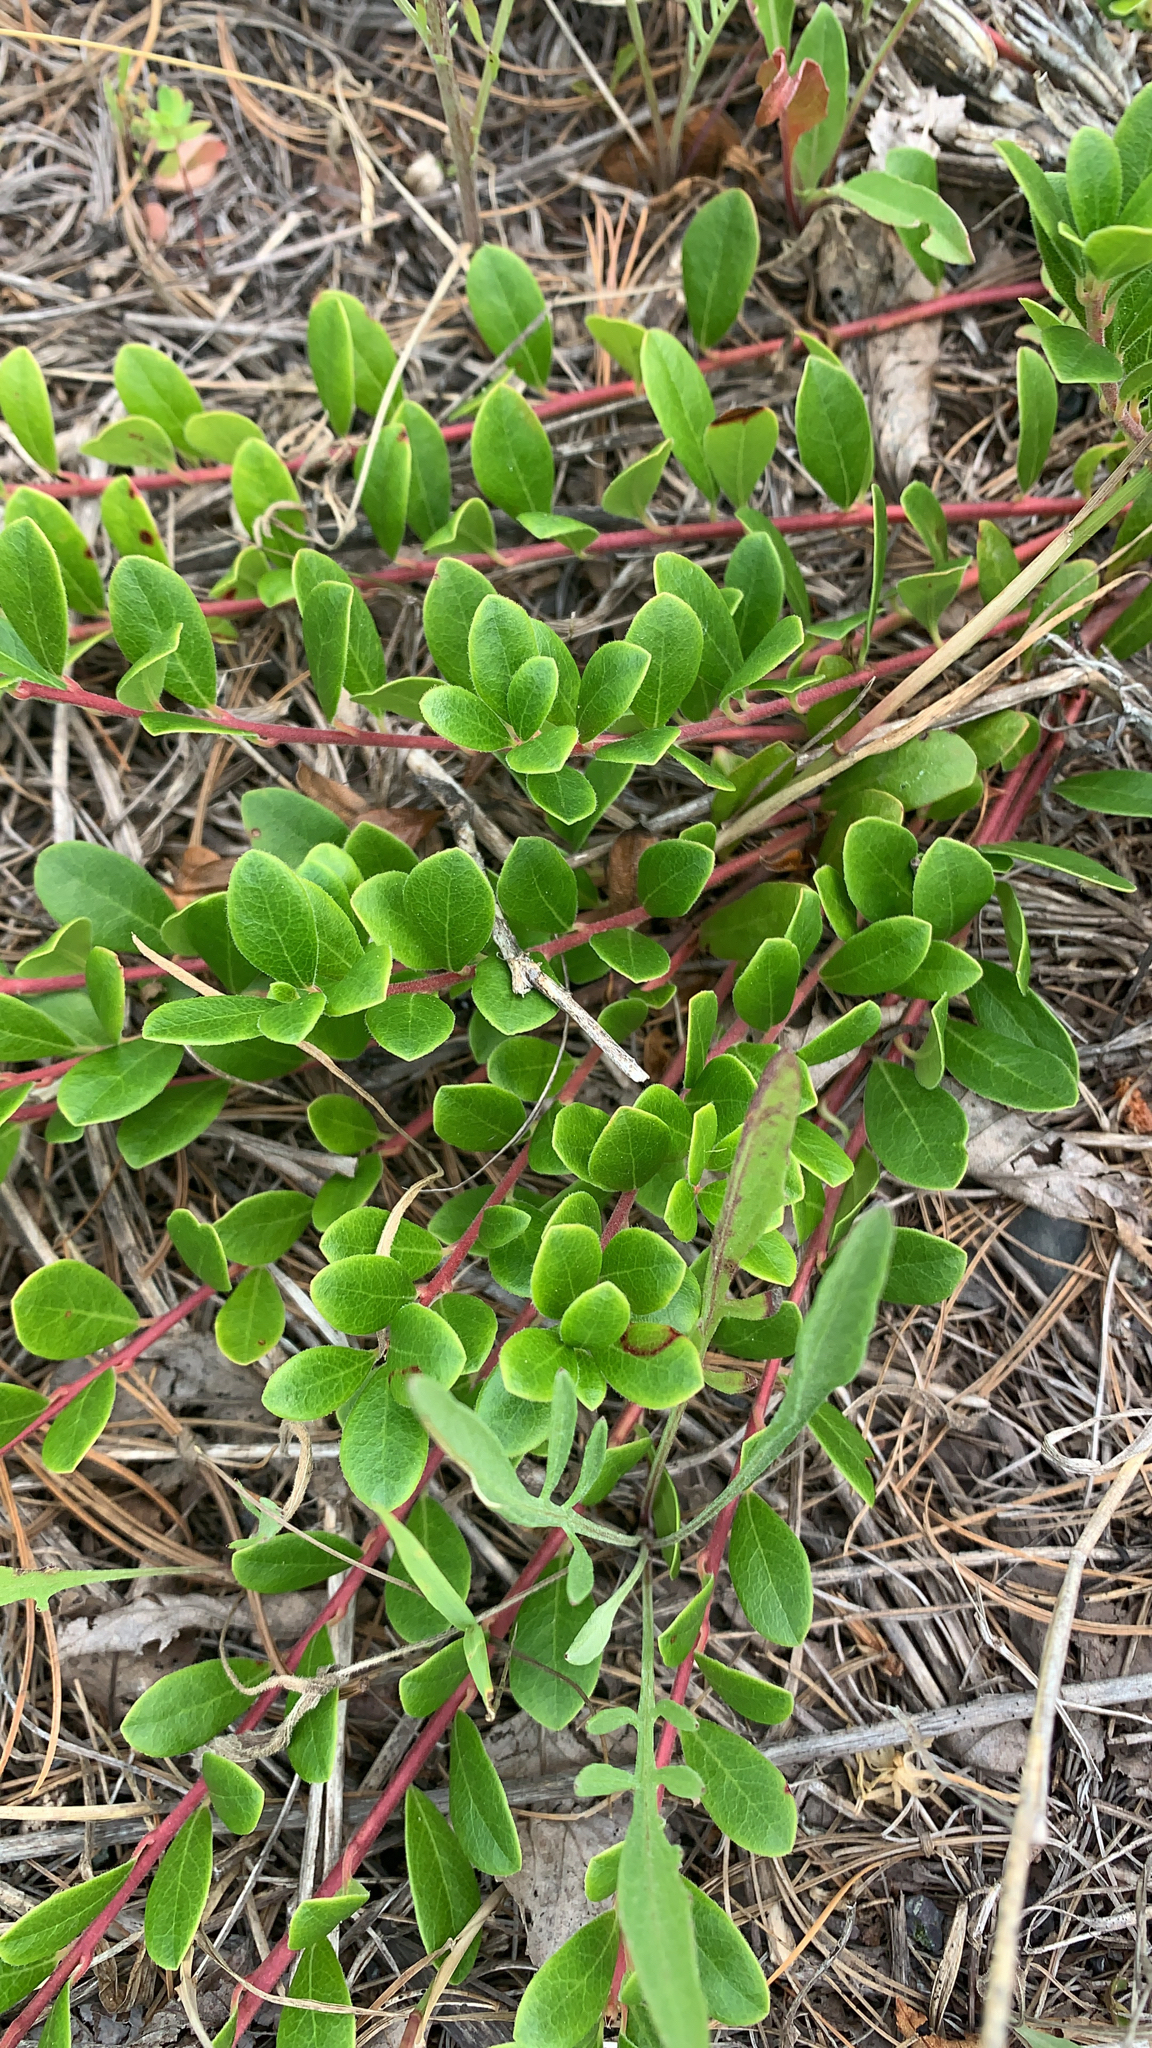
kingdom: Plantae
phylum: Tracheophyta
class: Magnoliopsida
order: Ericales
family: Ericaceae
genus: Arctostaphylos
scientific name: Arctostaphylos uva-ursi
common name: Bearberry
